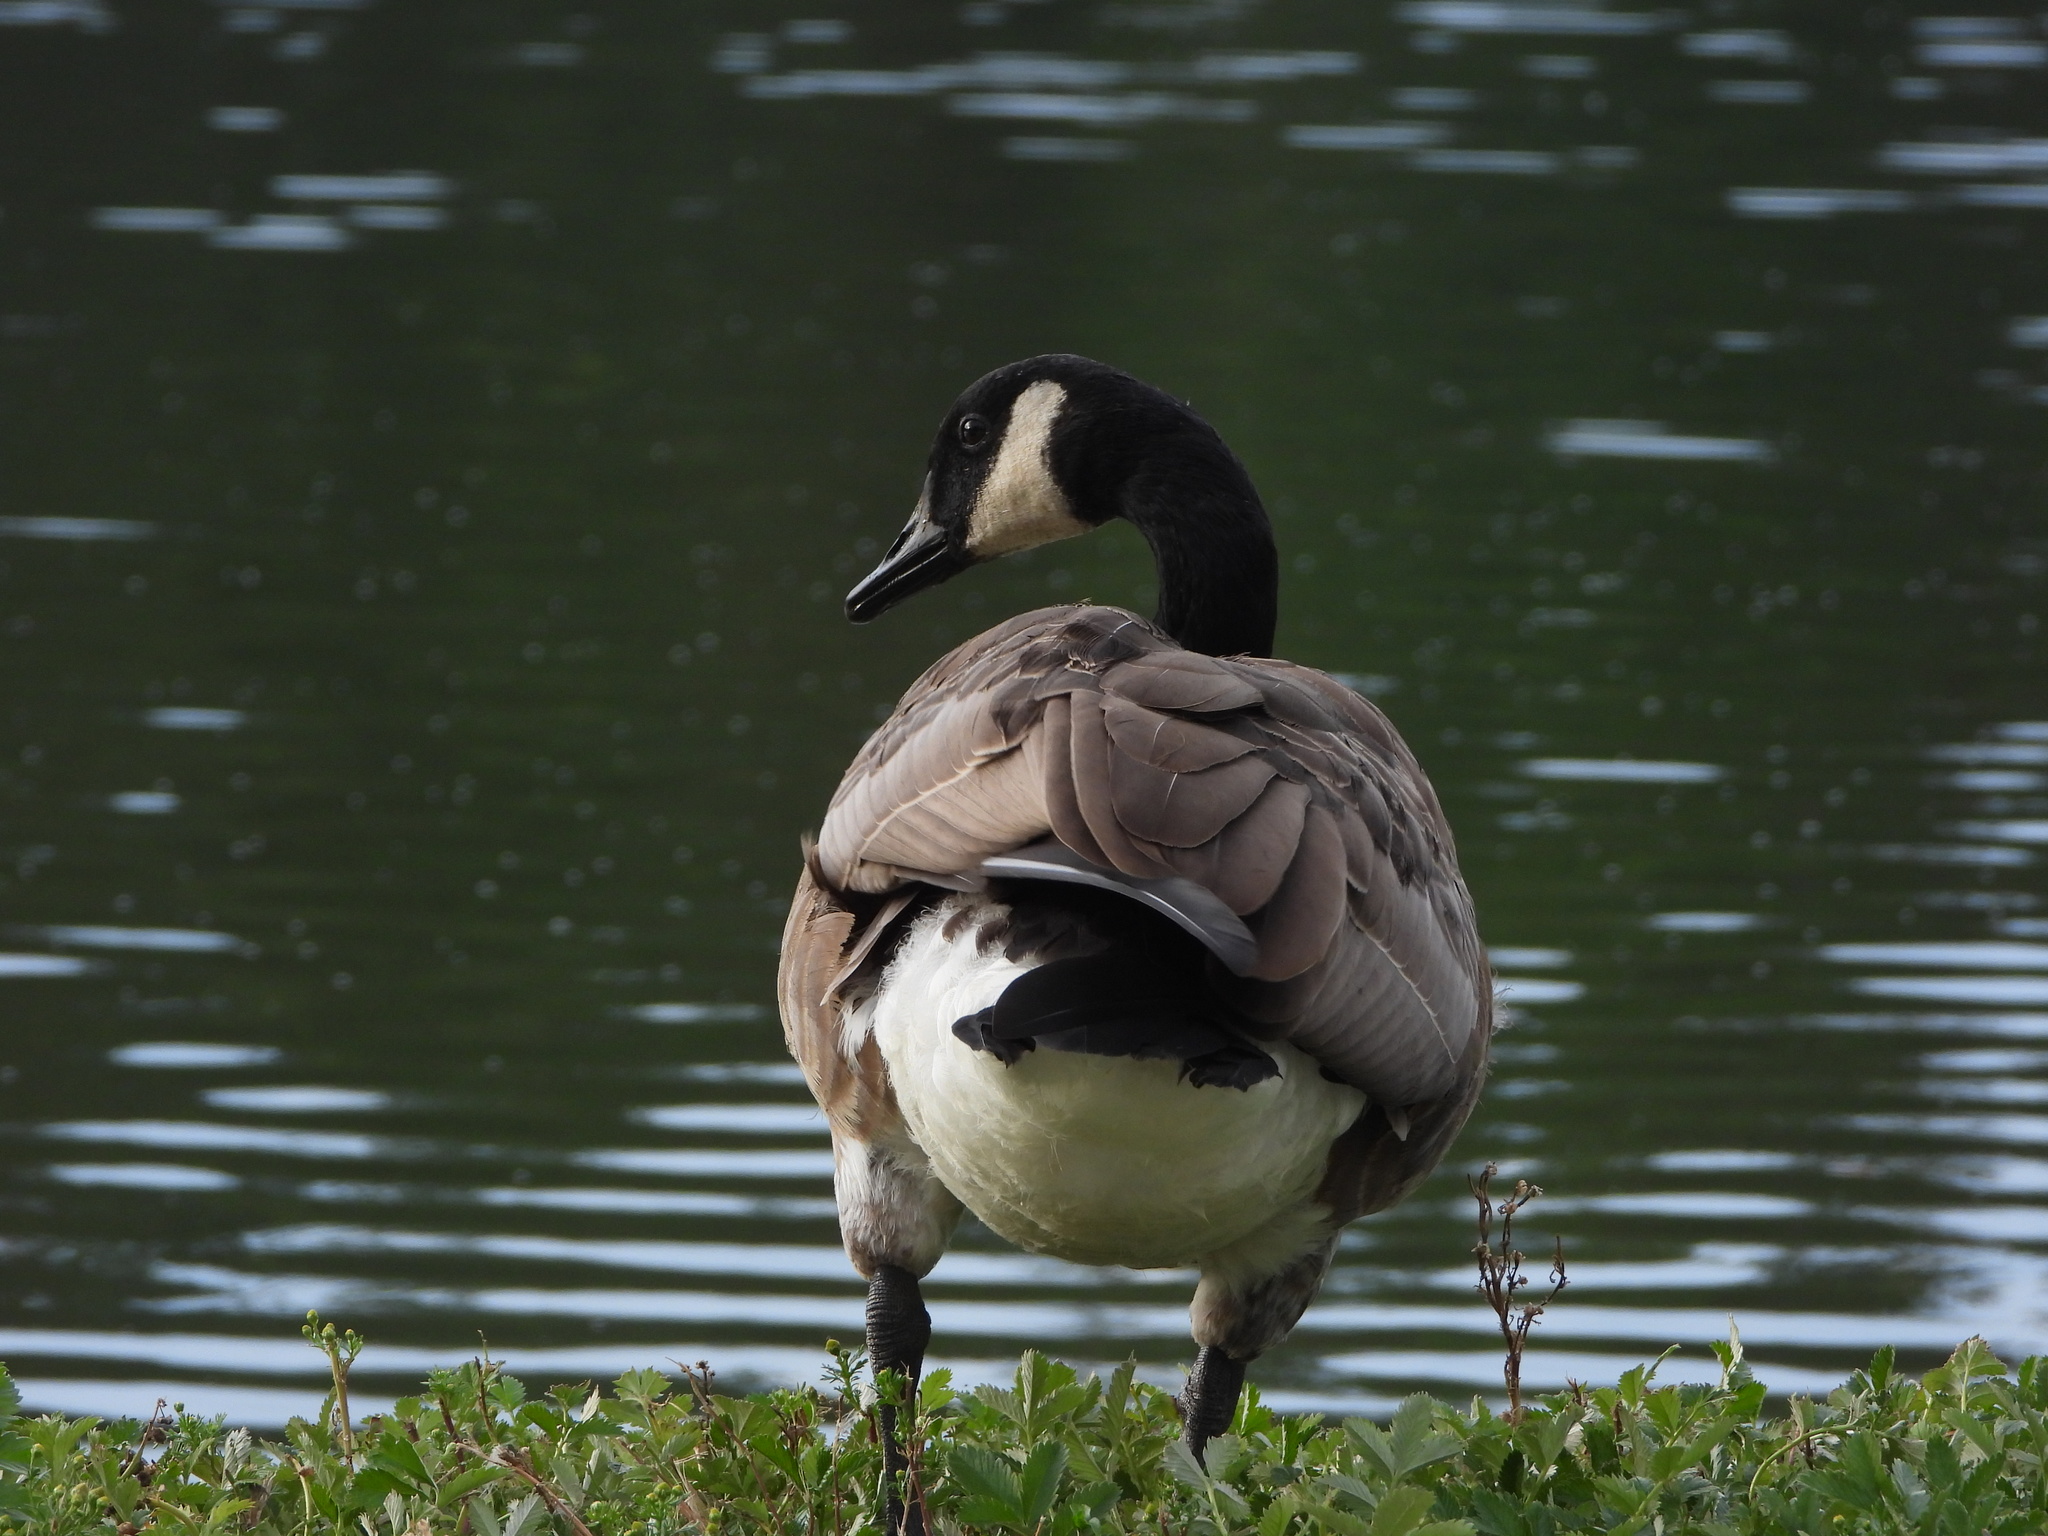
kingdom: Animalia
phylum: Chordata
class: Aves
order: Anseriformes
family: Anatidae
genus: Branta
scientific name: Branta canadensis
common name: Canada goose
